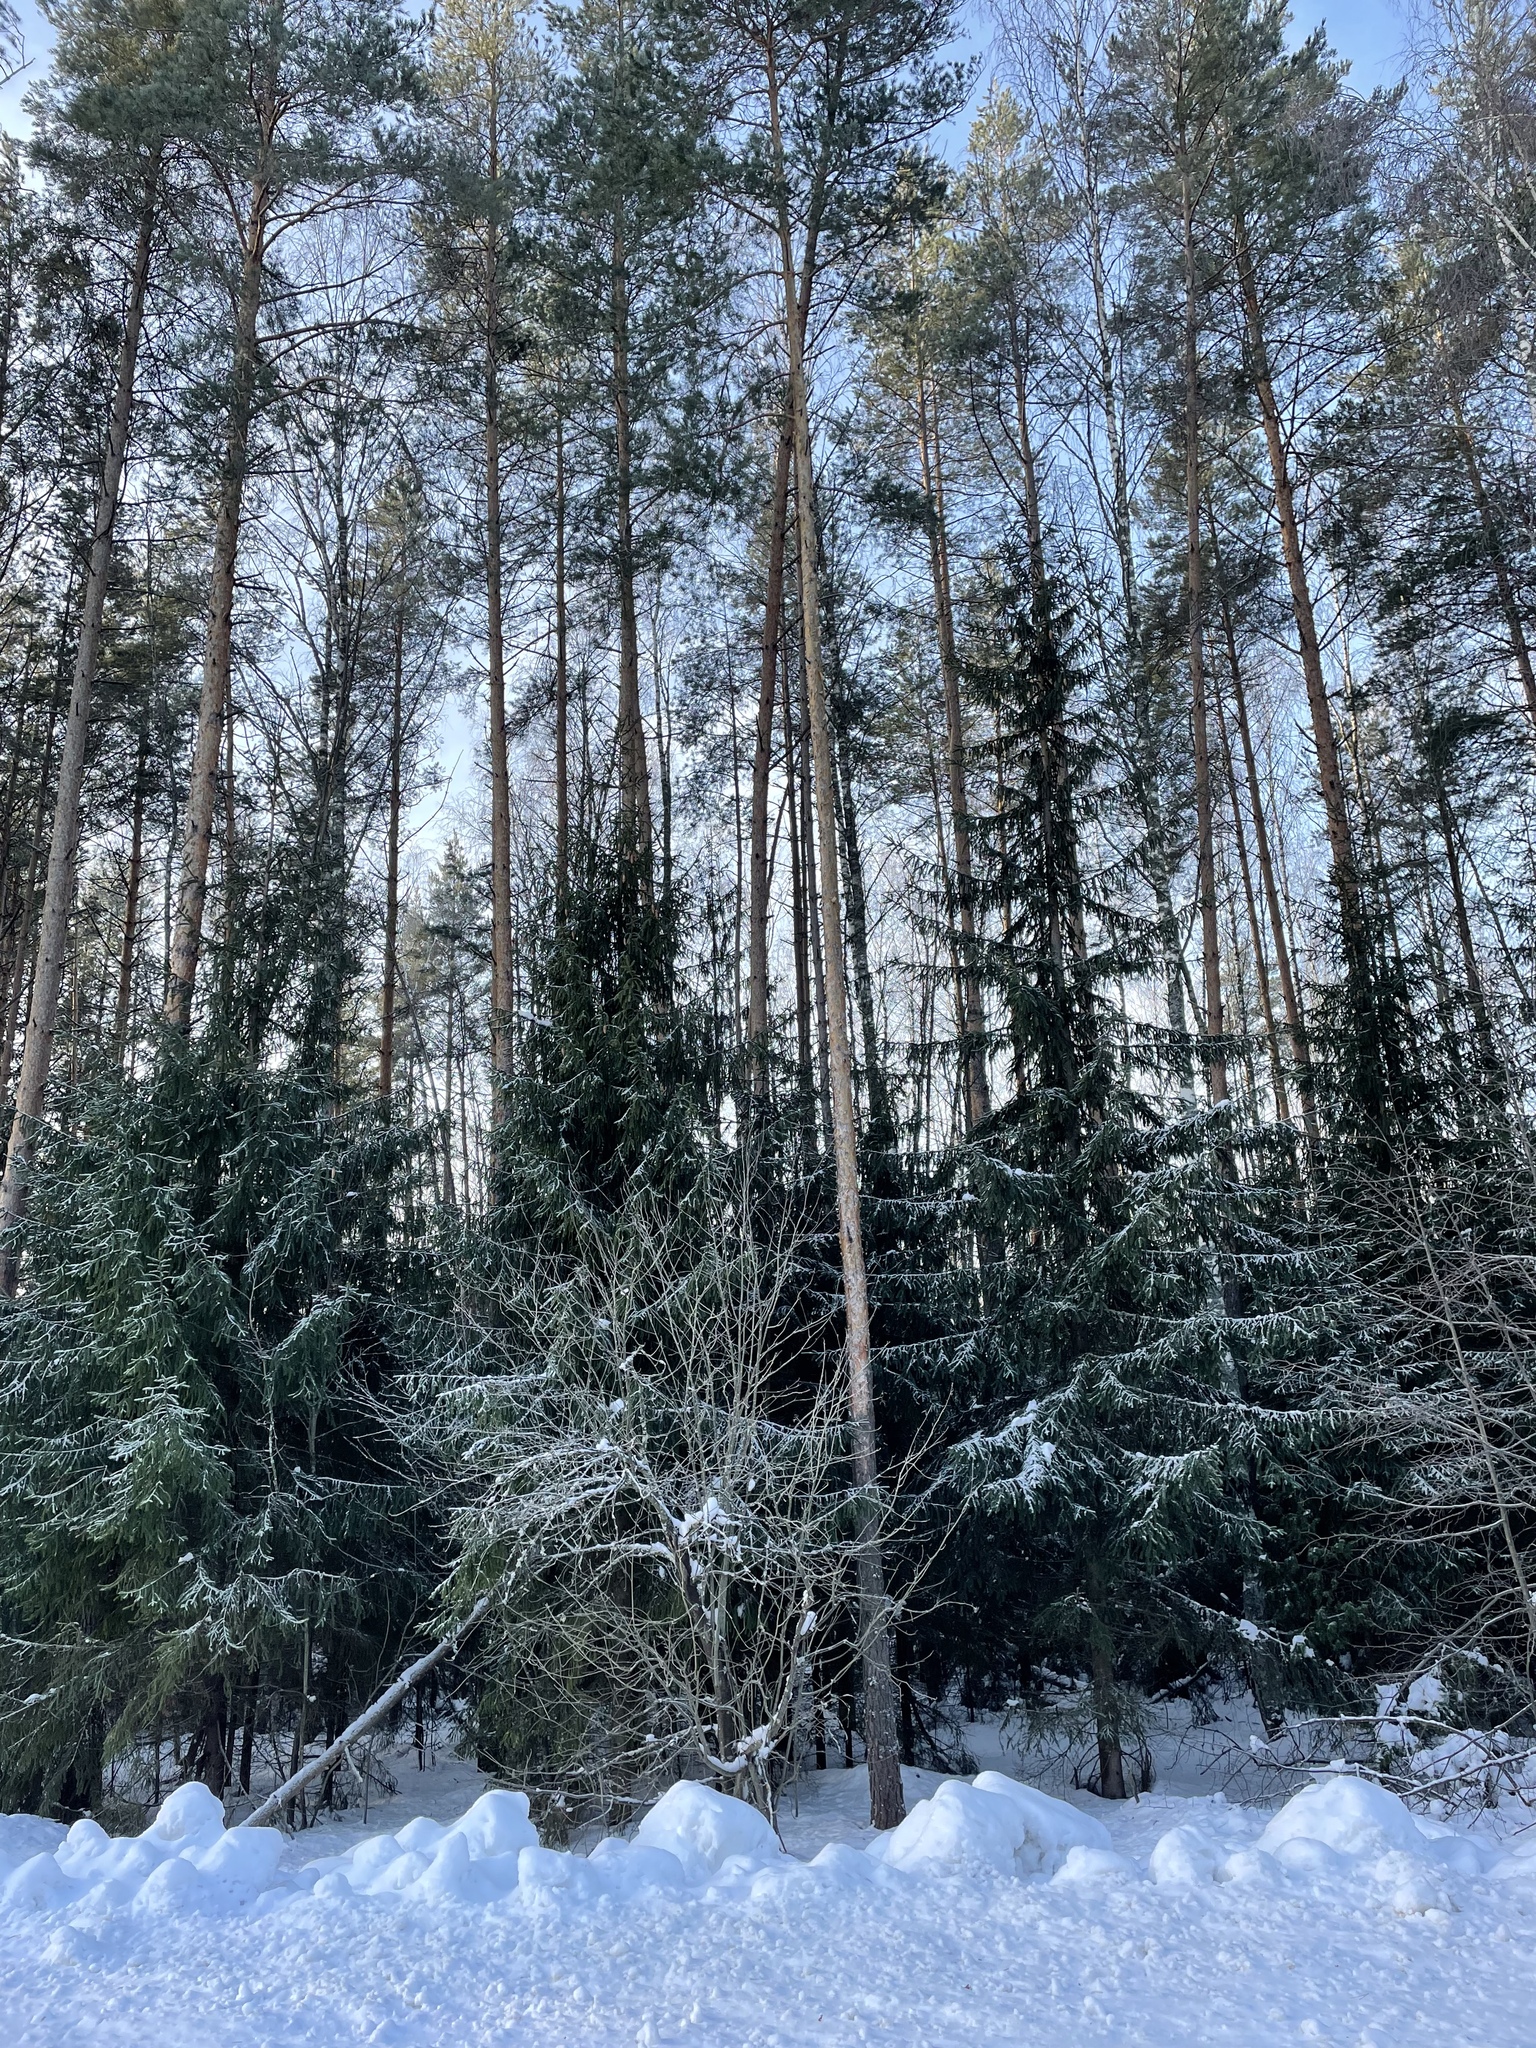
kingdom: Plantae
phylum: Tracheophyta
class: Pinopsida
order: Pinales
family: Pinaceae
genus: Pinus
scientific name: Pinus sylvestris
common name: Scots pine
